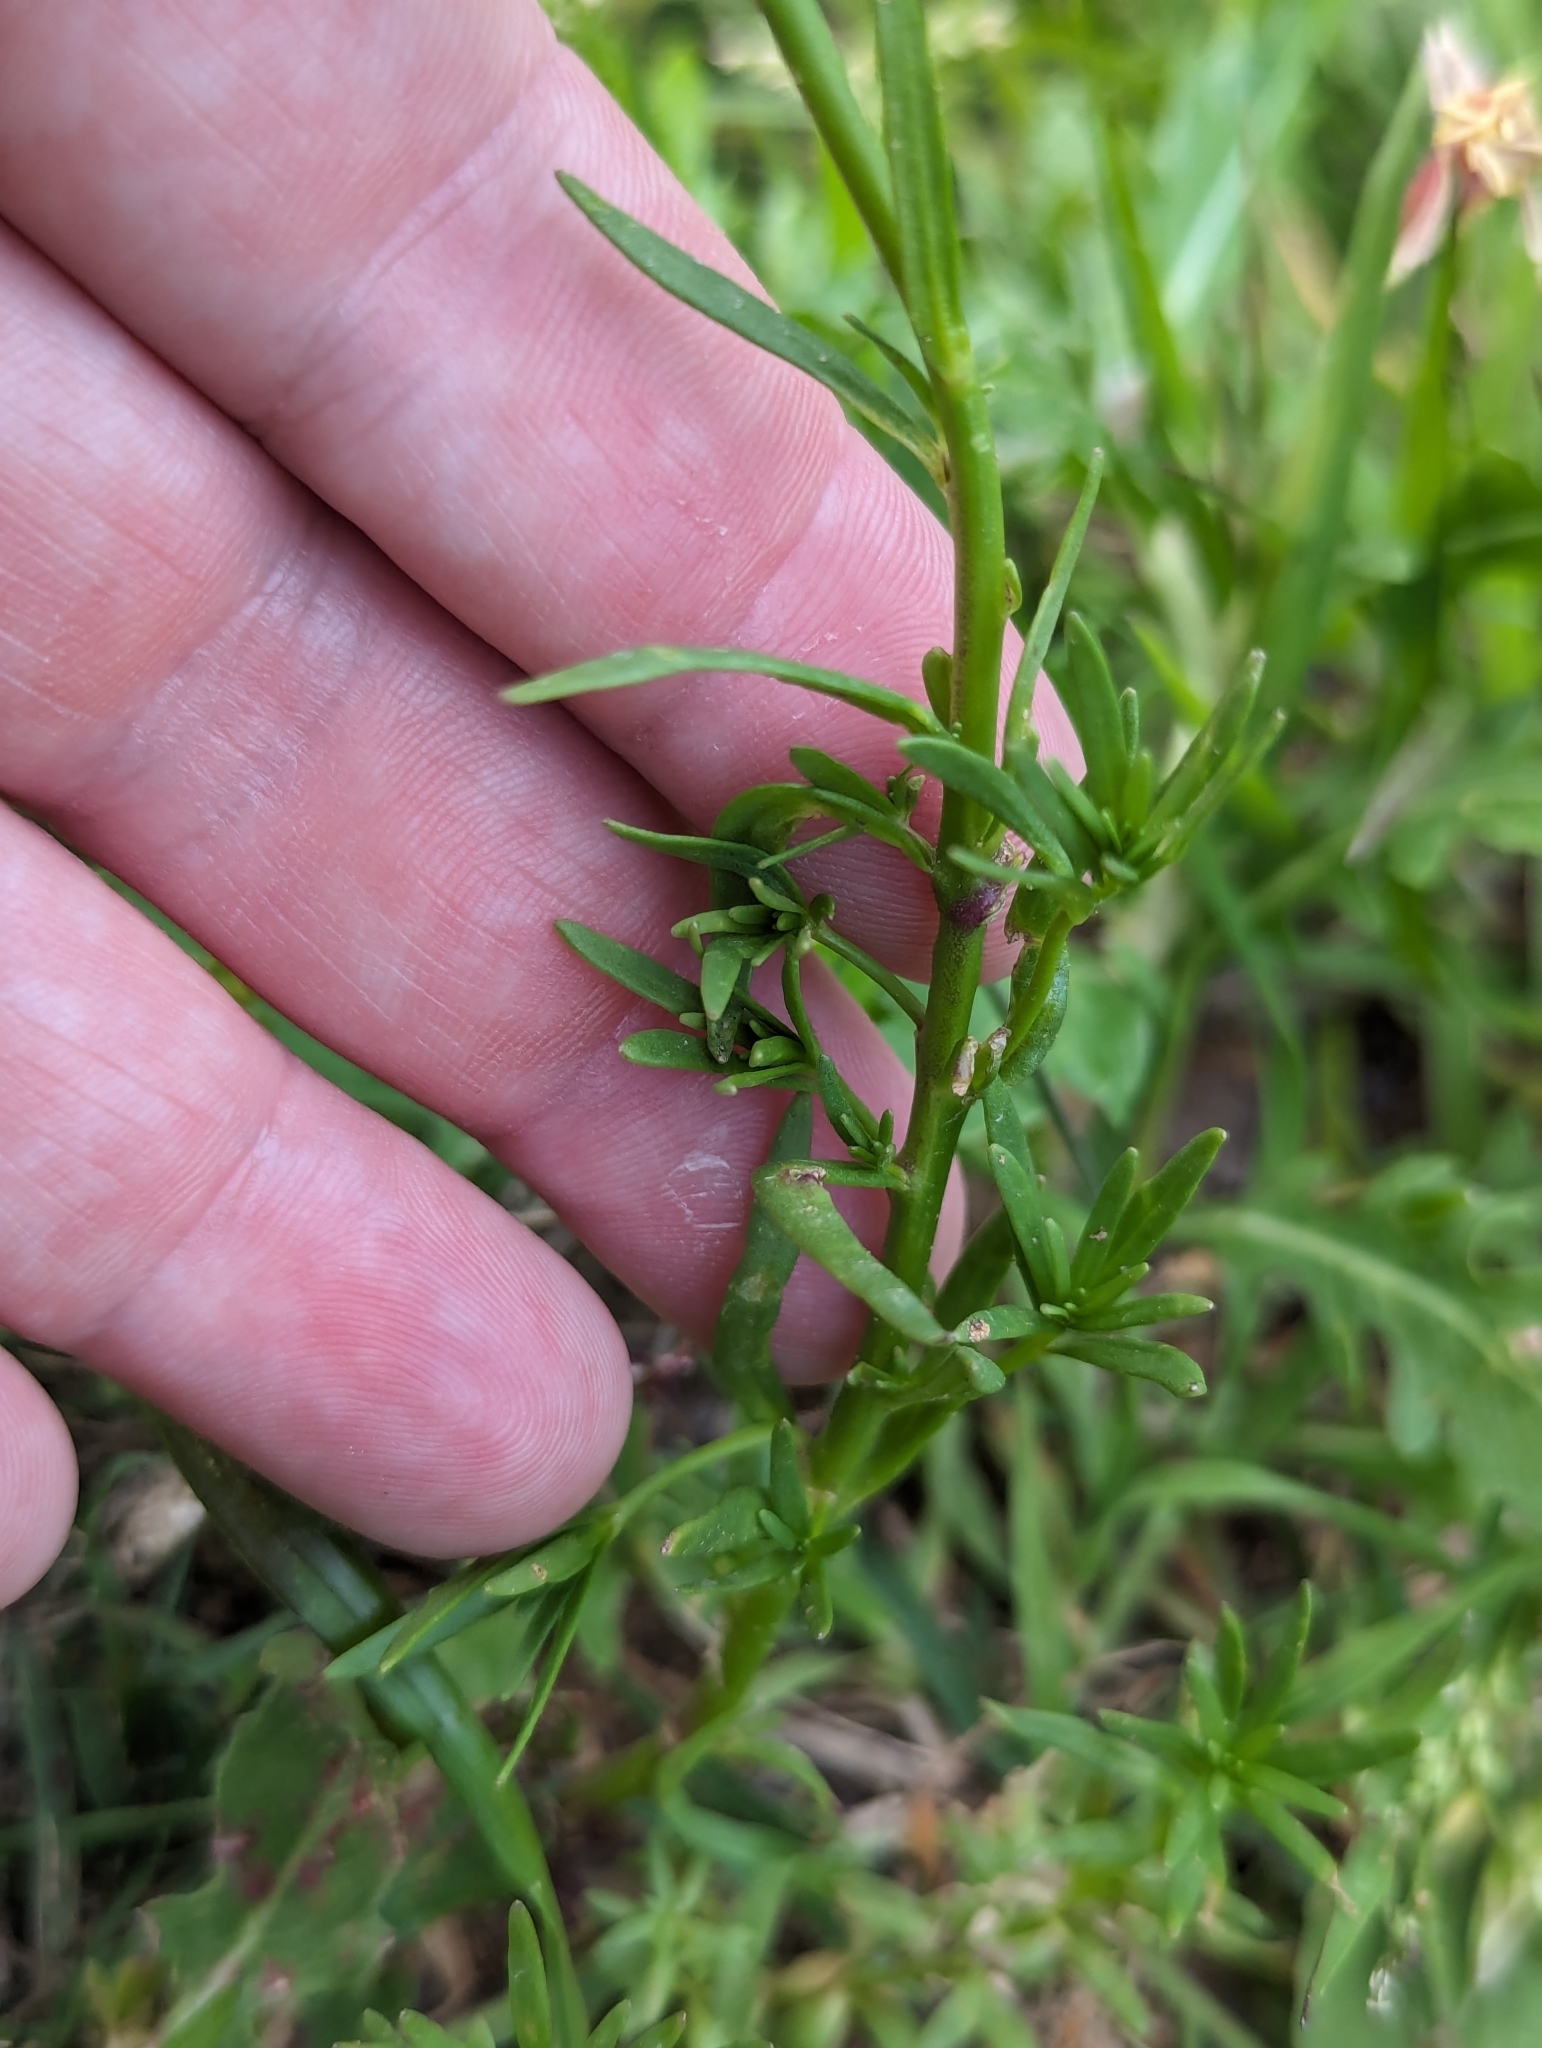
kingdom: Plantae
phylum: Tracheophyta
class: Magnoliopsida
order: Lamiales
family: Plantaginaceae
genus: Nuttallanthus
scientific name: Nuttallanthus texanus
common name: Texas toadflax
